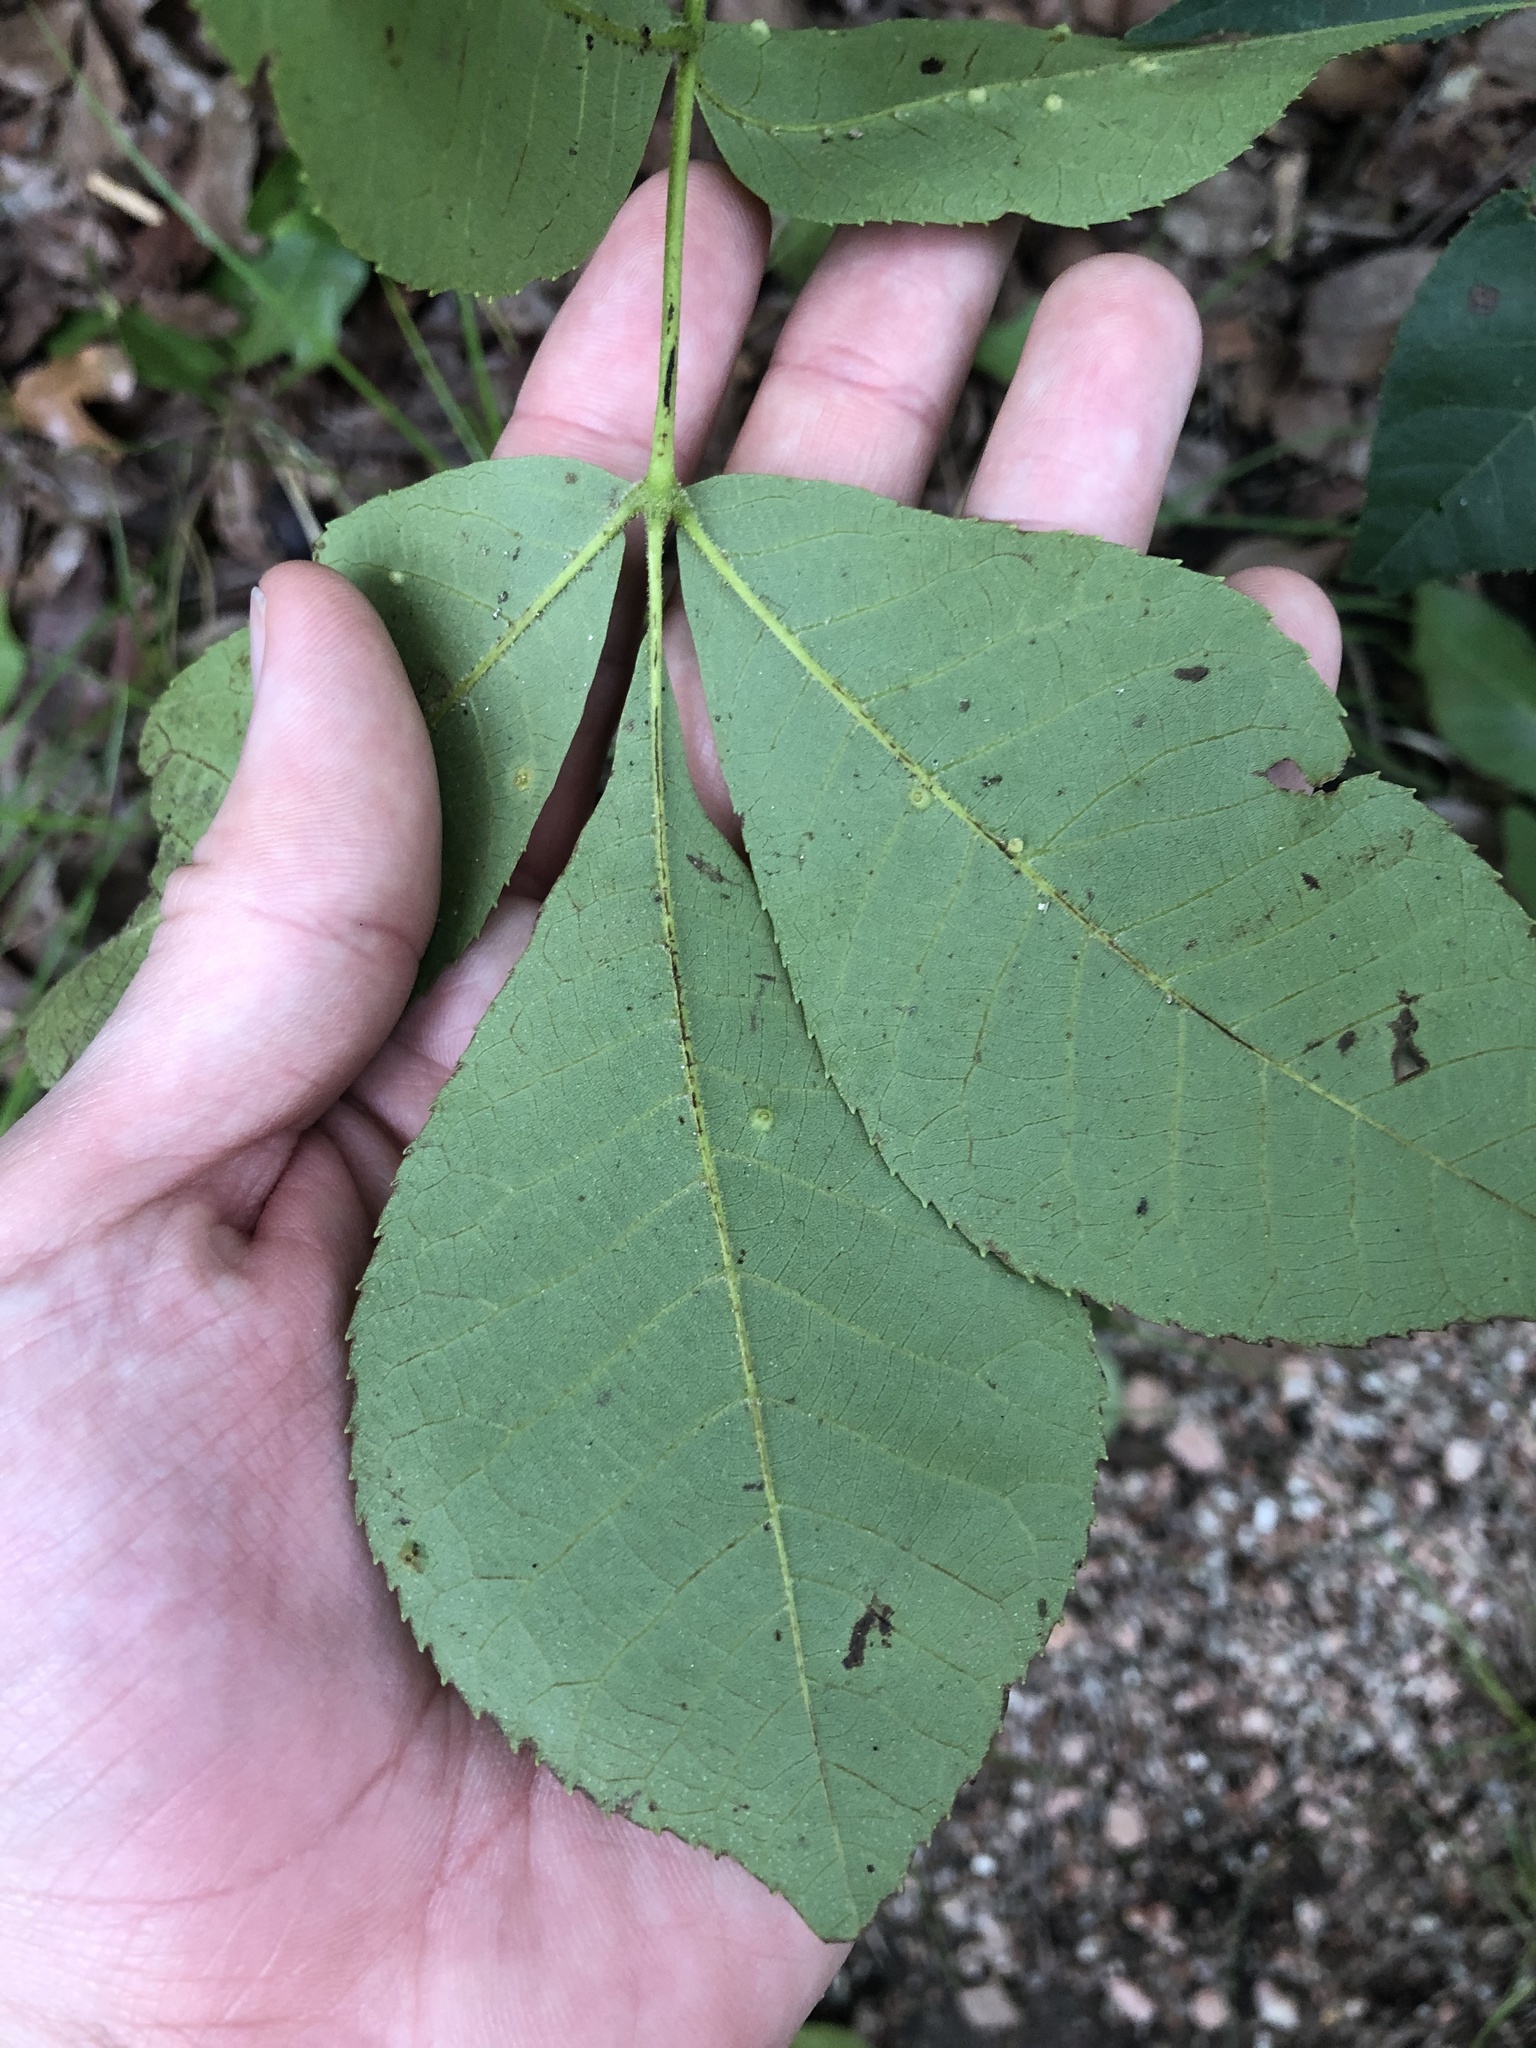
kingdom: Plantae
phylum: Tracheophyta
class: Magnoliopsida
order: Fagales
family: Juglandaceae
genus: Carya
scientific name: Carya texana
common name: Black hickory
